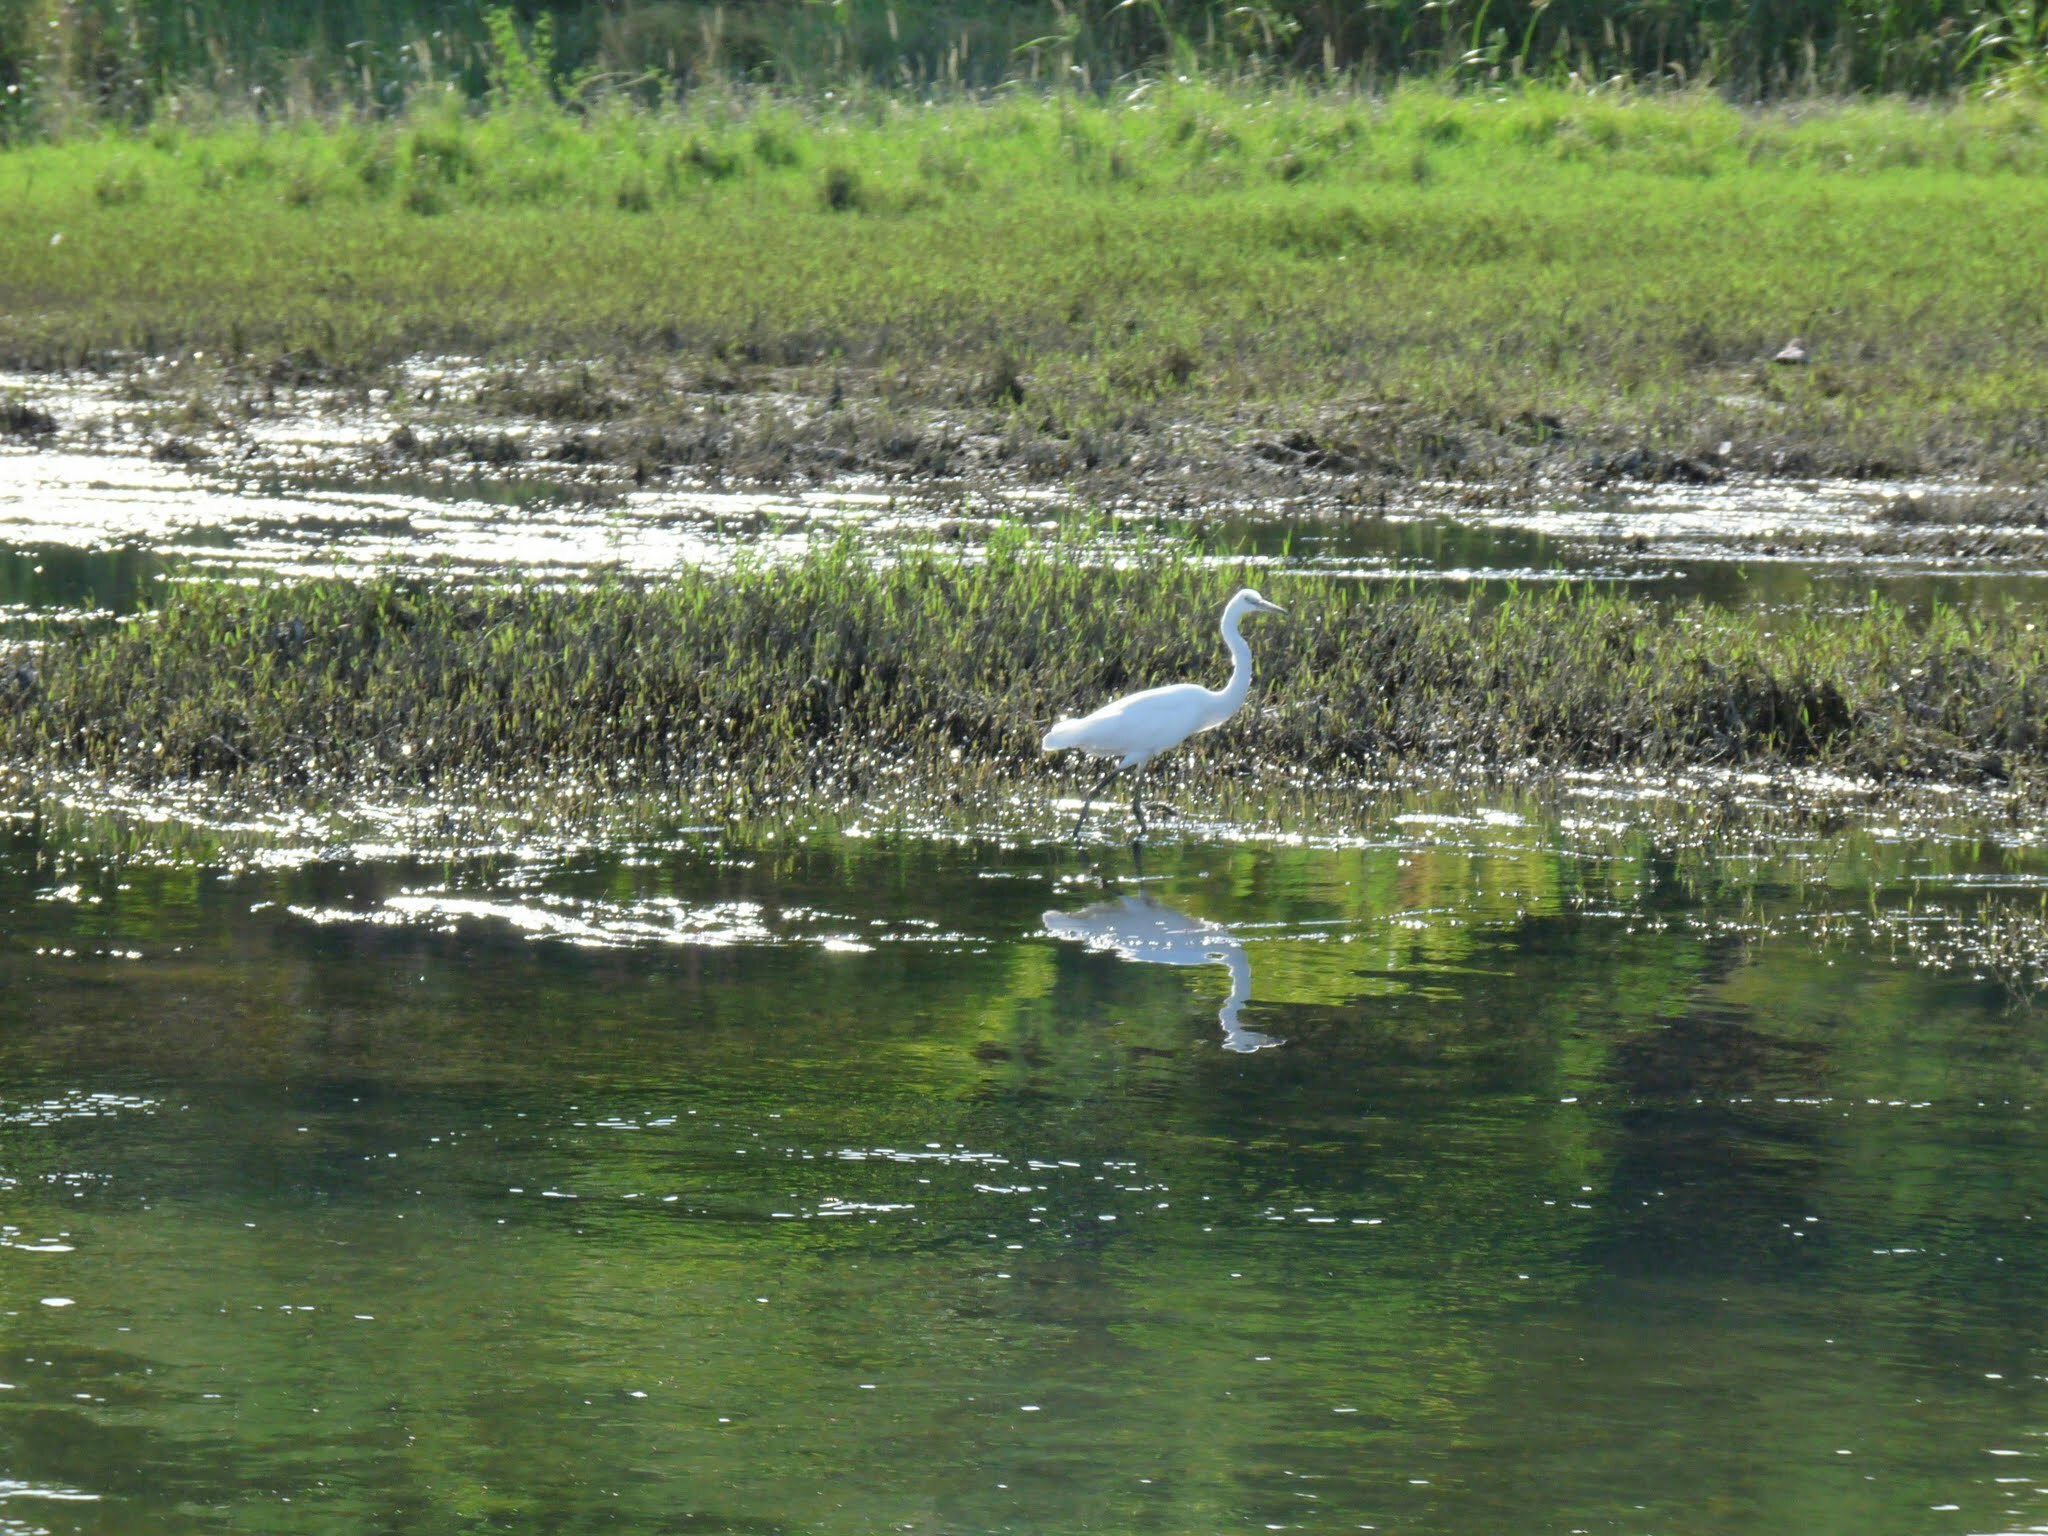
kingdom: Animalia
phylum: Chordata
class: Aves
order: Pelecaniformes
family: Ardeidae
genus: Egretta
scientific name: Egretta garzetta
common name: Little egret
